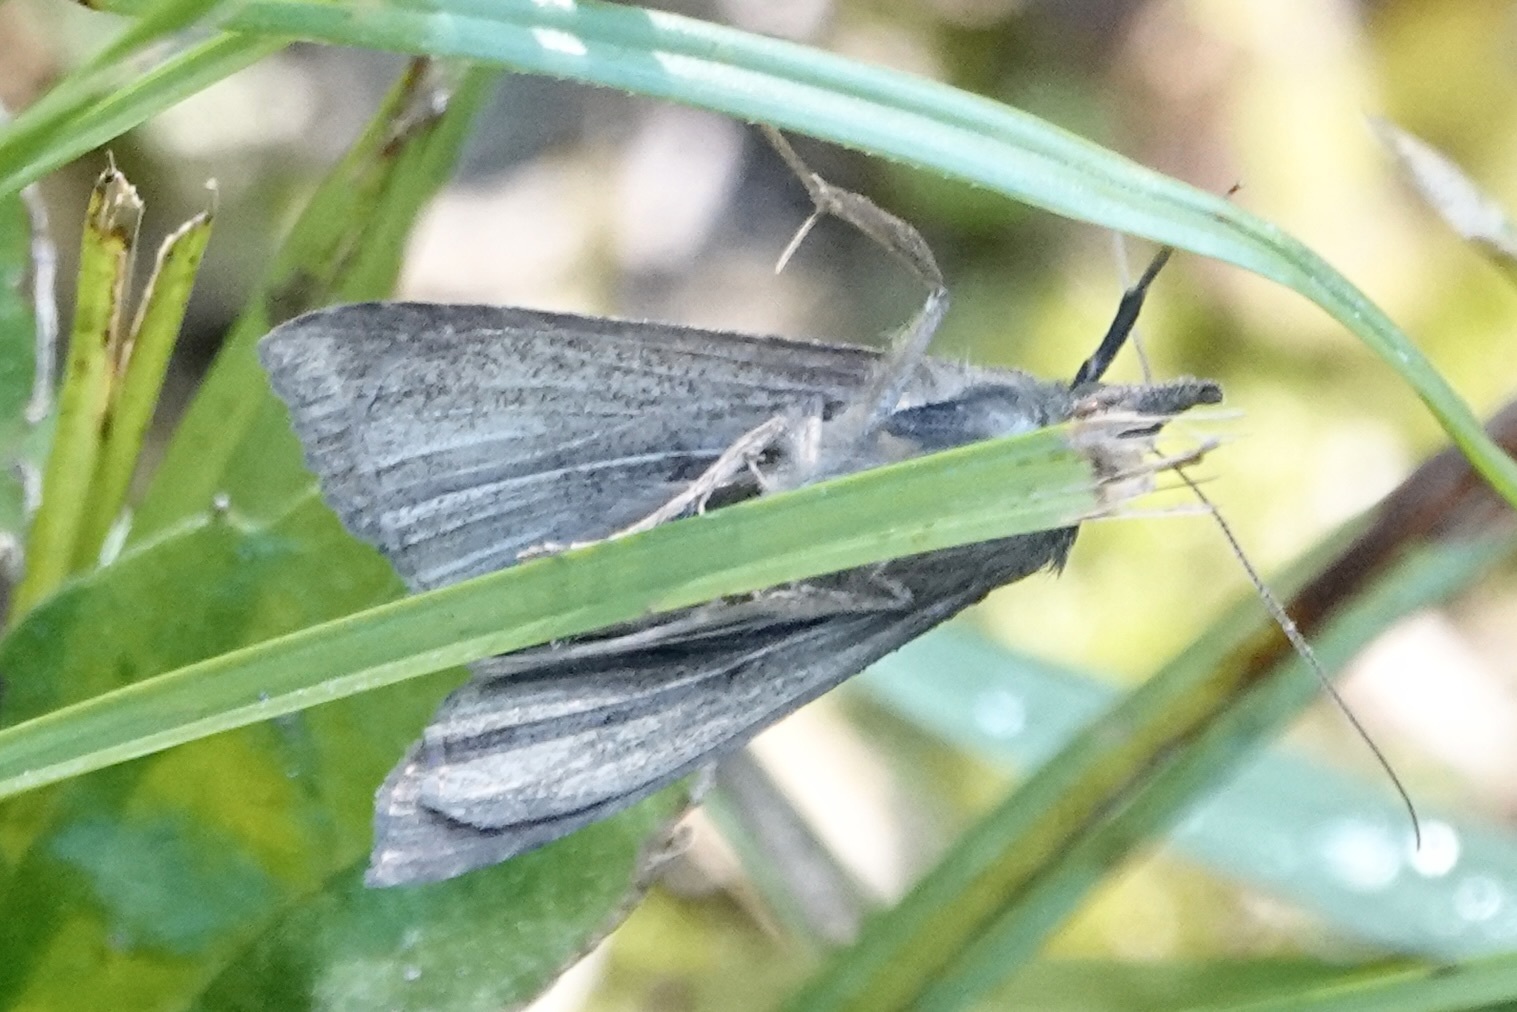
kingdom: Animalia
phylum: Arthropoda
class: Insecta
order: Lepidoptera
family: Erebidae
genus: Hypena
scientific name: Hypena scabra
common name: Green cloverworm
